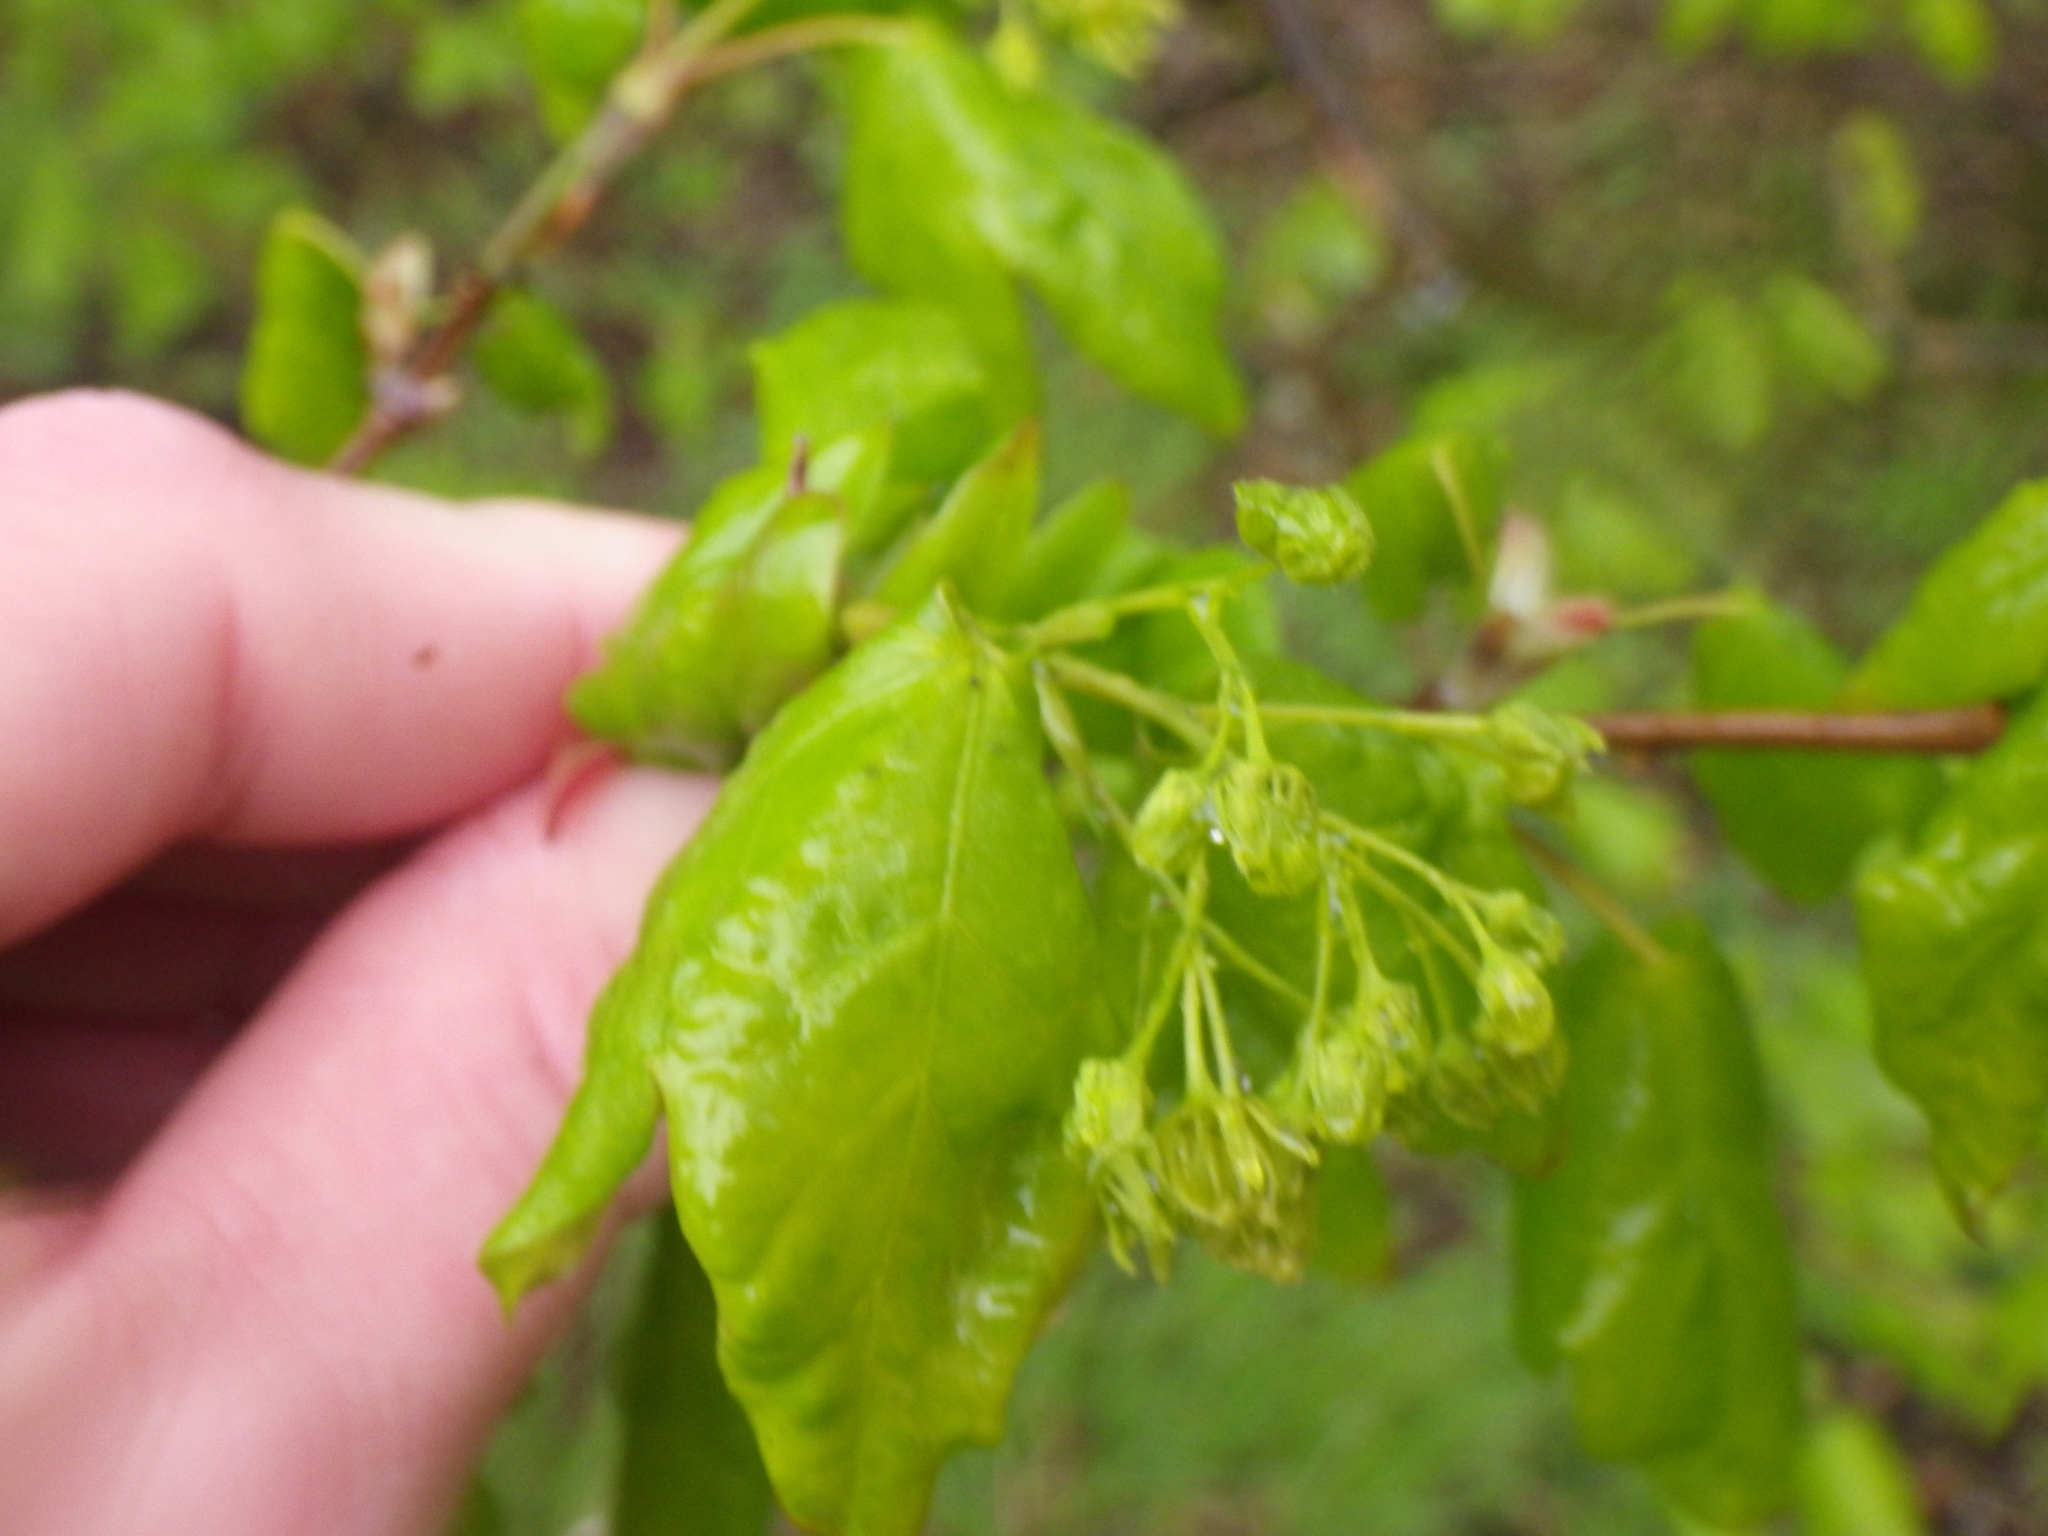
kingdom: Plantae
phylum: Tracheophyta
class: Magnoliopsida
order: Sapindales
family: Sapindaceae
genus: Acer
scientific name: Acer campestre
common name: Field maple
